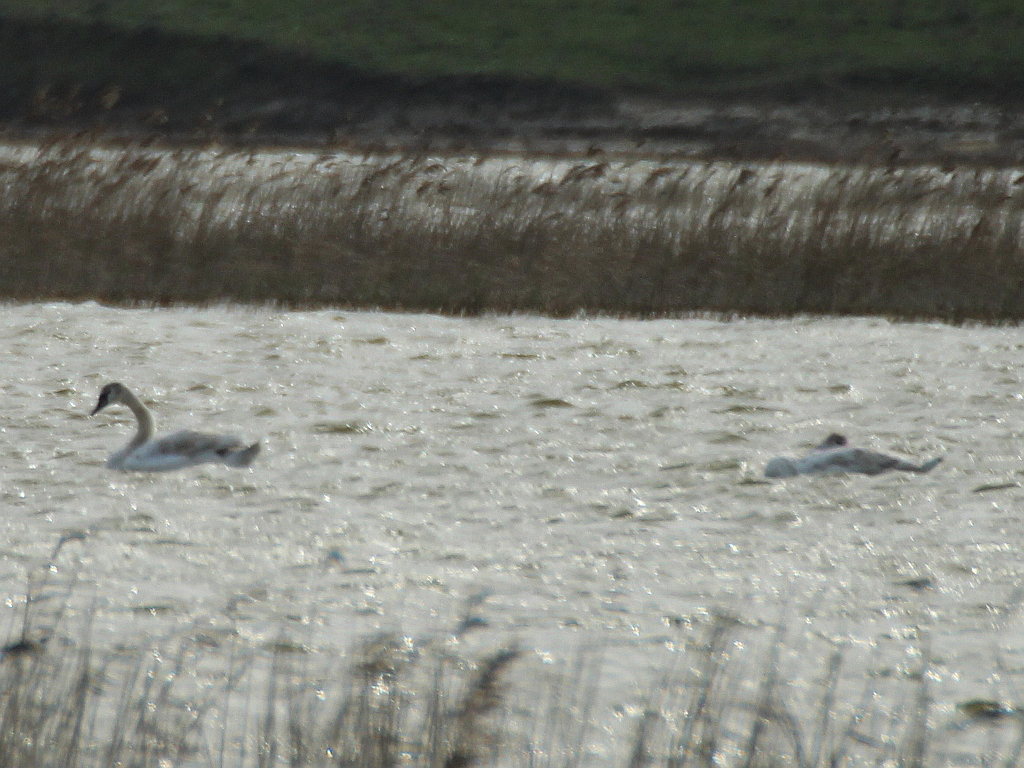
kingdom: Animalia
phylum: Chordata
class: Aves
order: Anseriformes
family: Anatidae
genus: Cygnus
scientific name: Cygnus olor
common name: Mute swan
